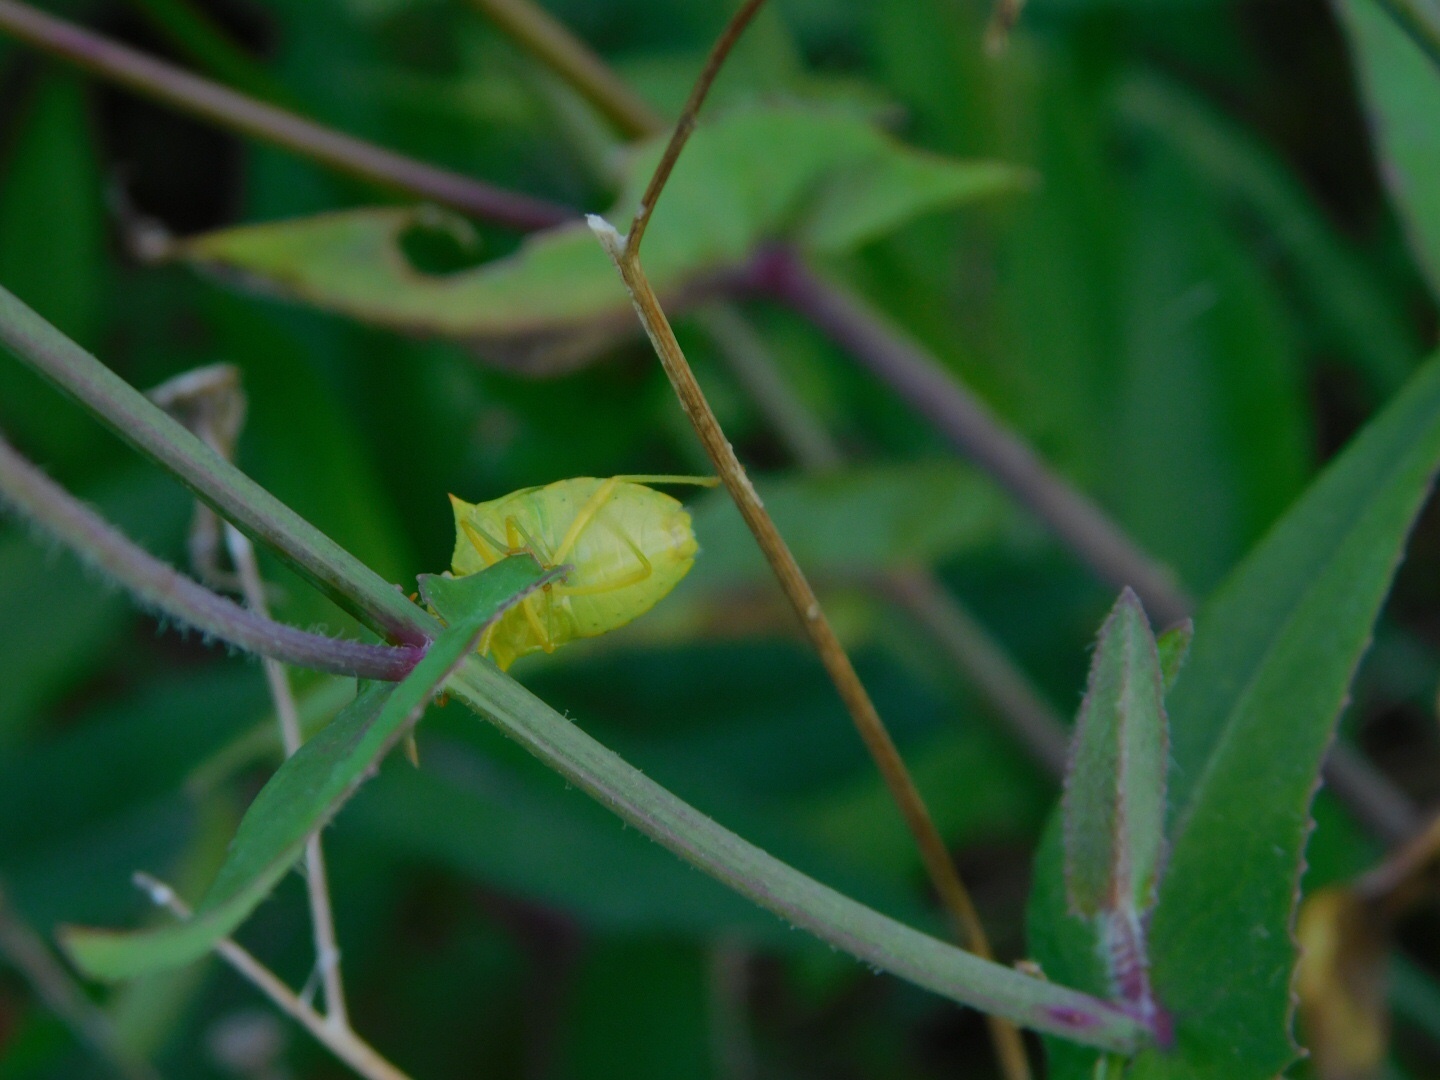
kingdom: Animalia
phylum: Arthropoda
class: Insecta
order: Hemiptera
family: Pentatomidae
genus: Thyanta
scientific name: Thyanta perditor
